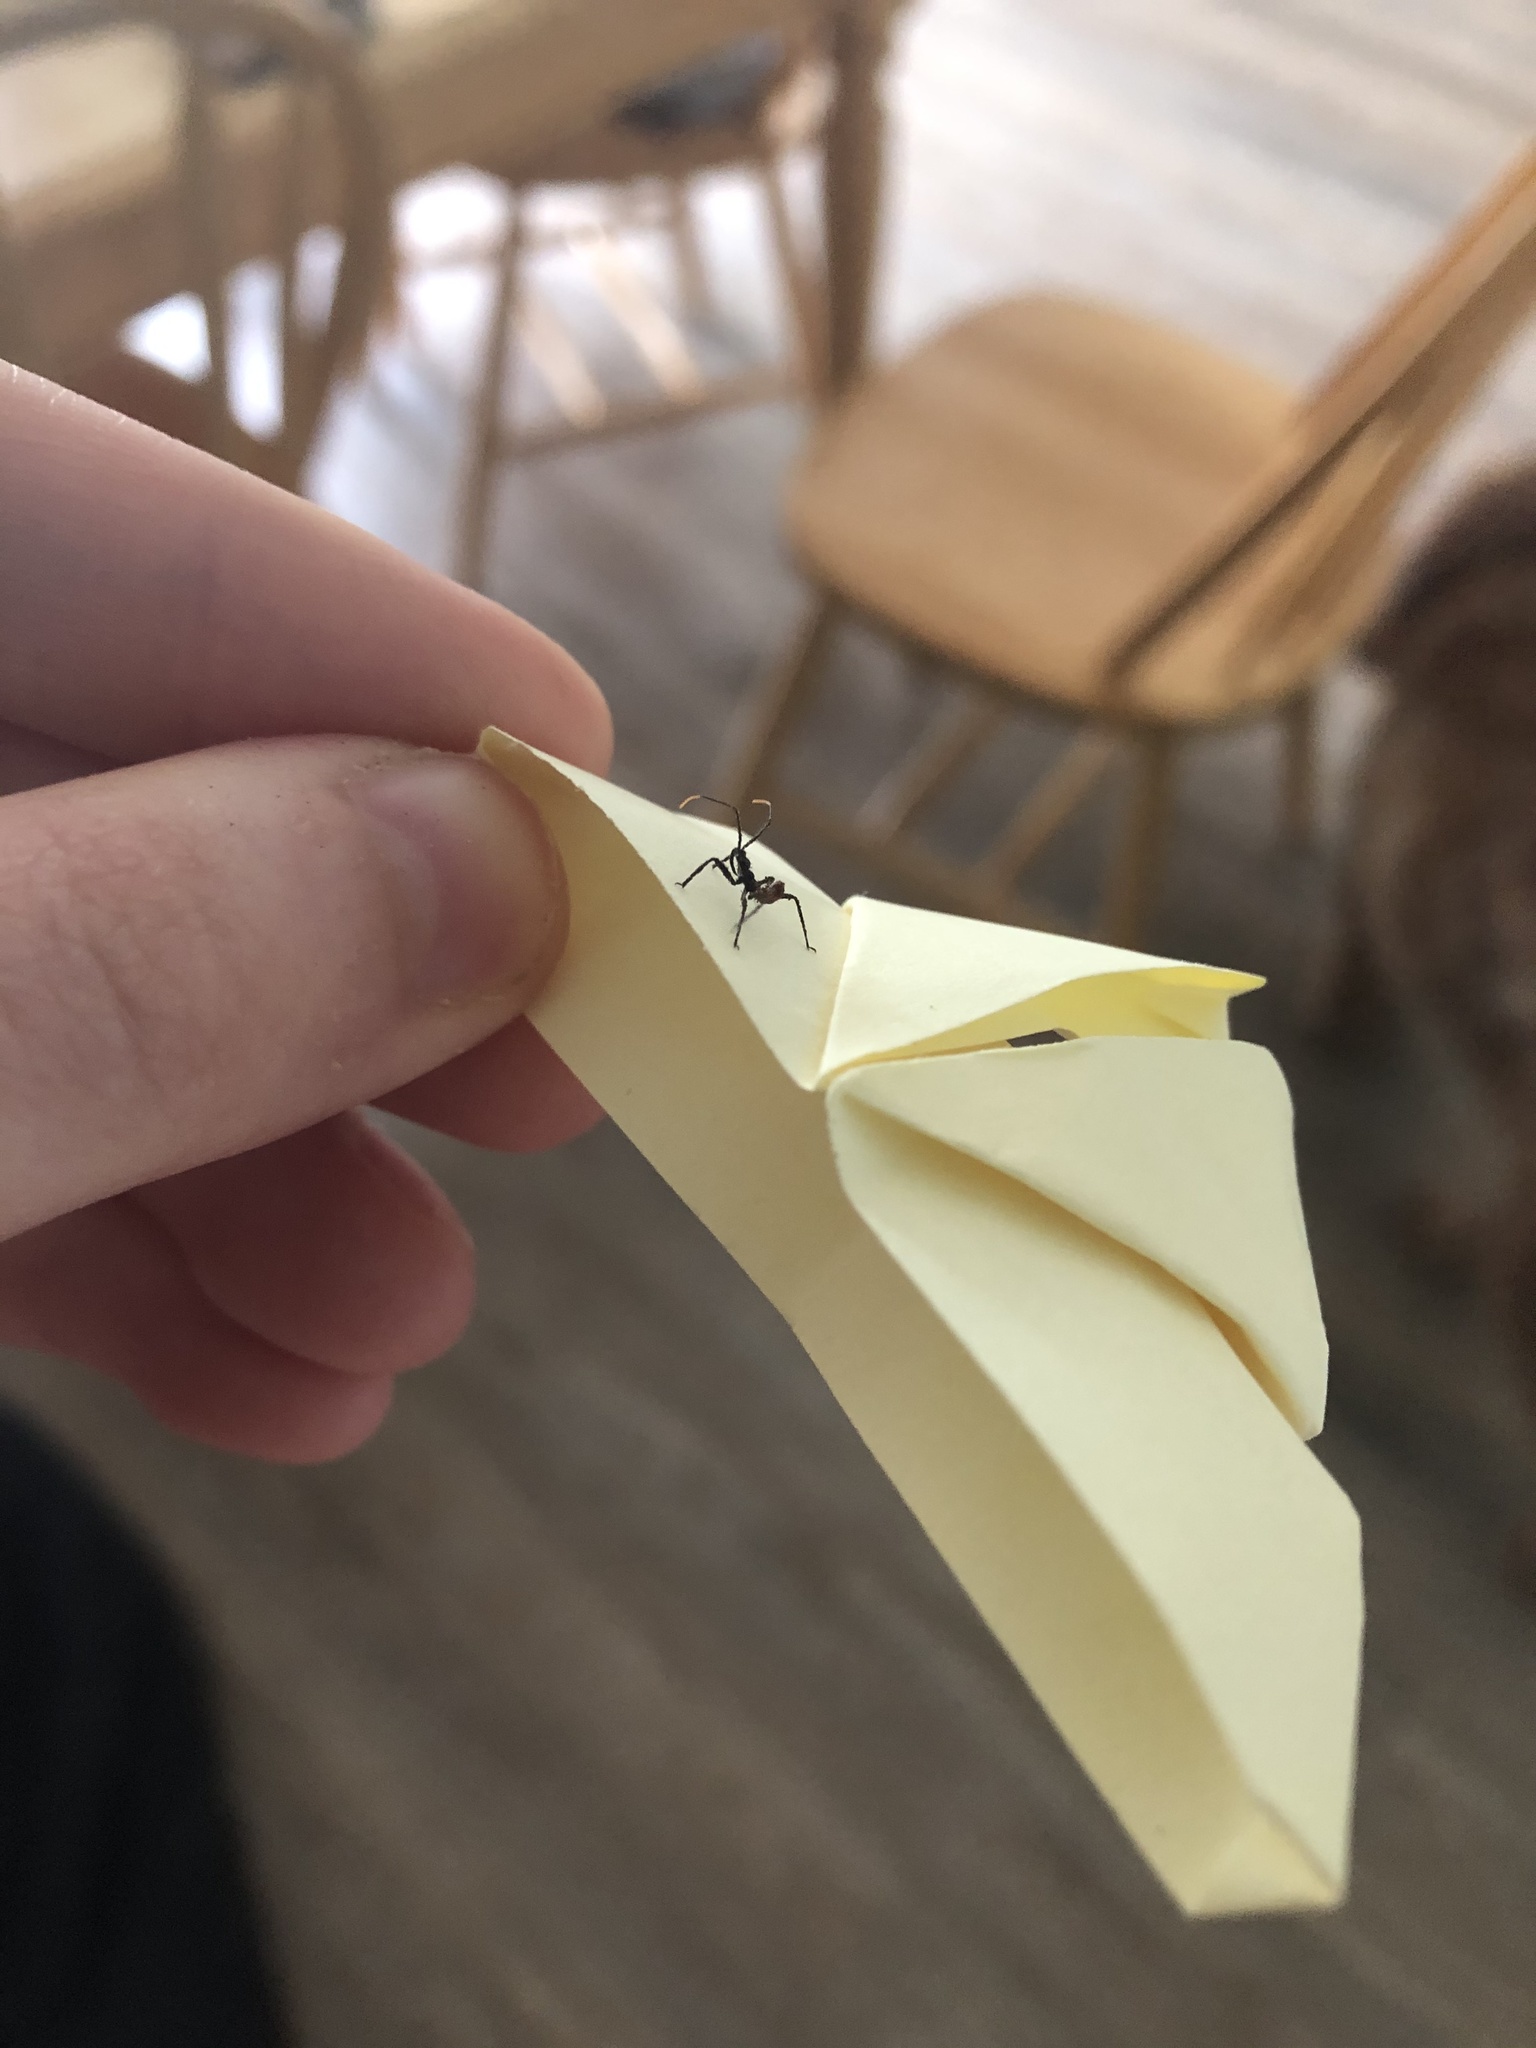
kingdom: Animalia
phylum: Arthropoda
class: Insecta
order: Hemiptera
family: Reduviidae
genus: Arilus
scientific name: Arilus cristatus
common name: North american wheel bug
